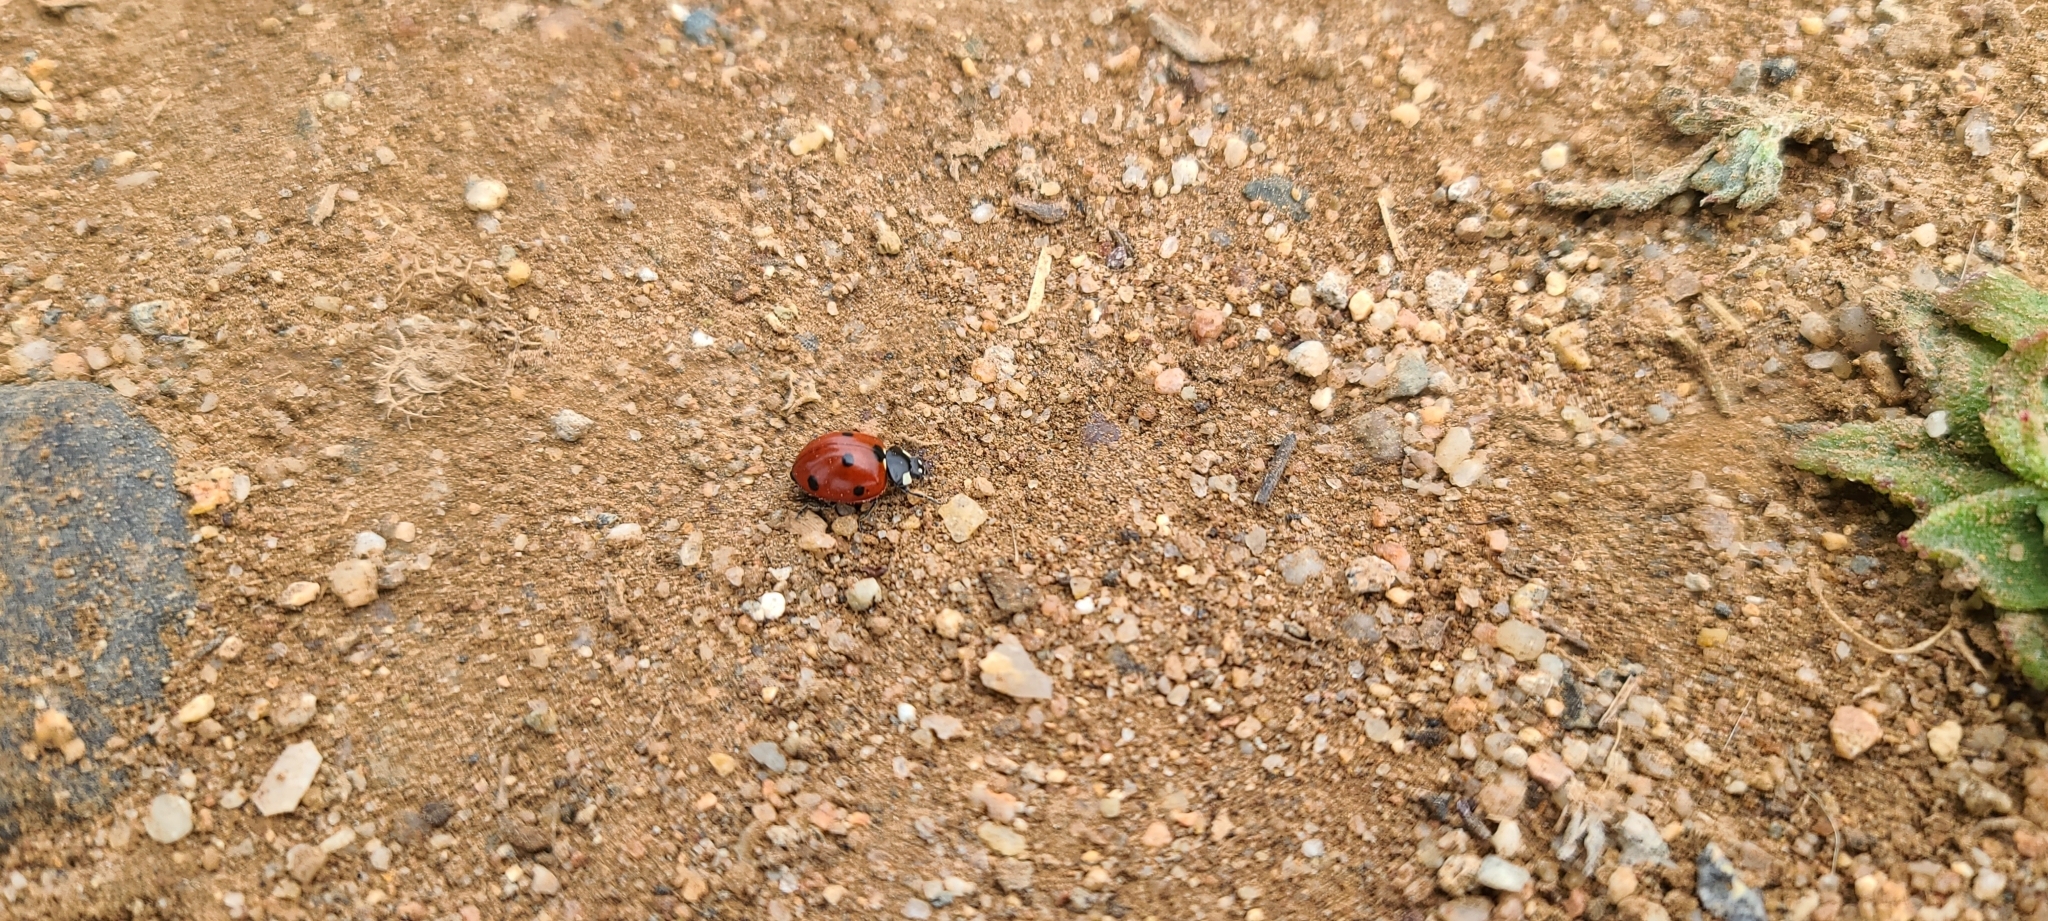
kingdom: Animalia
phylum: Arthropoda
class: Insecta
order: Coleoptera
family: Coccinellidae
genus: Coccinella
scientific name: Coccinella septempunctata
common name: Sevenspotted lady beetle
